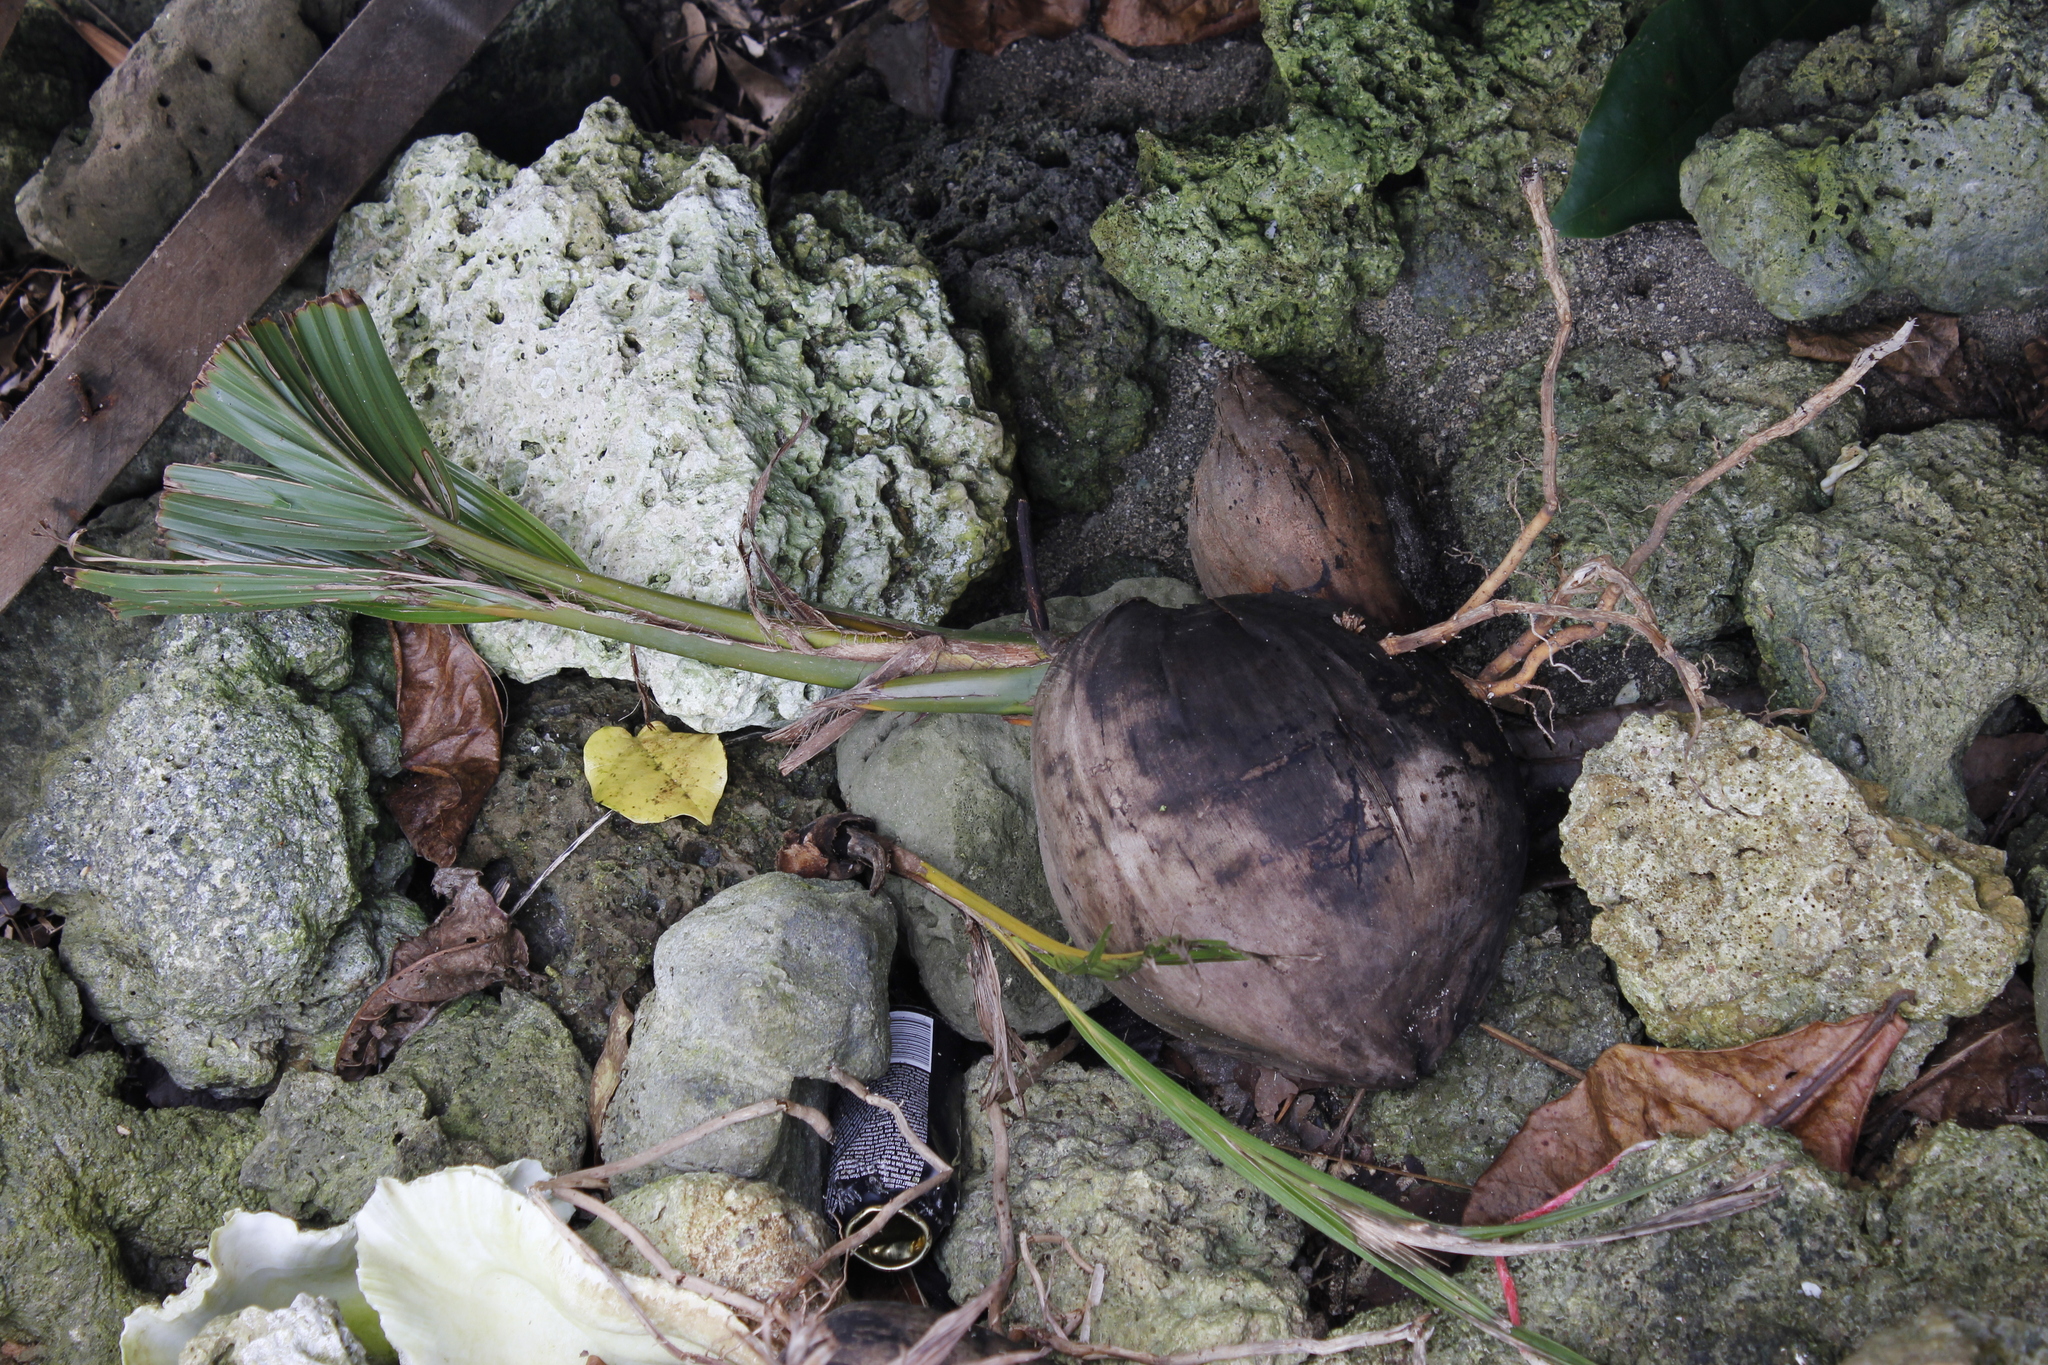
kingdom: Plantae
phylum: Tracheophyta
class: Liliopsida
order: Arecales
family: Arecaceae
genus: Cocos
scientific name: Cocos nucifera
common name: Coconut palm
